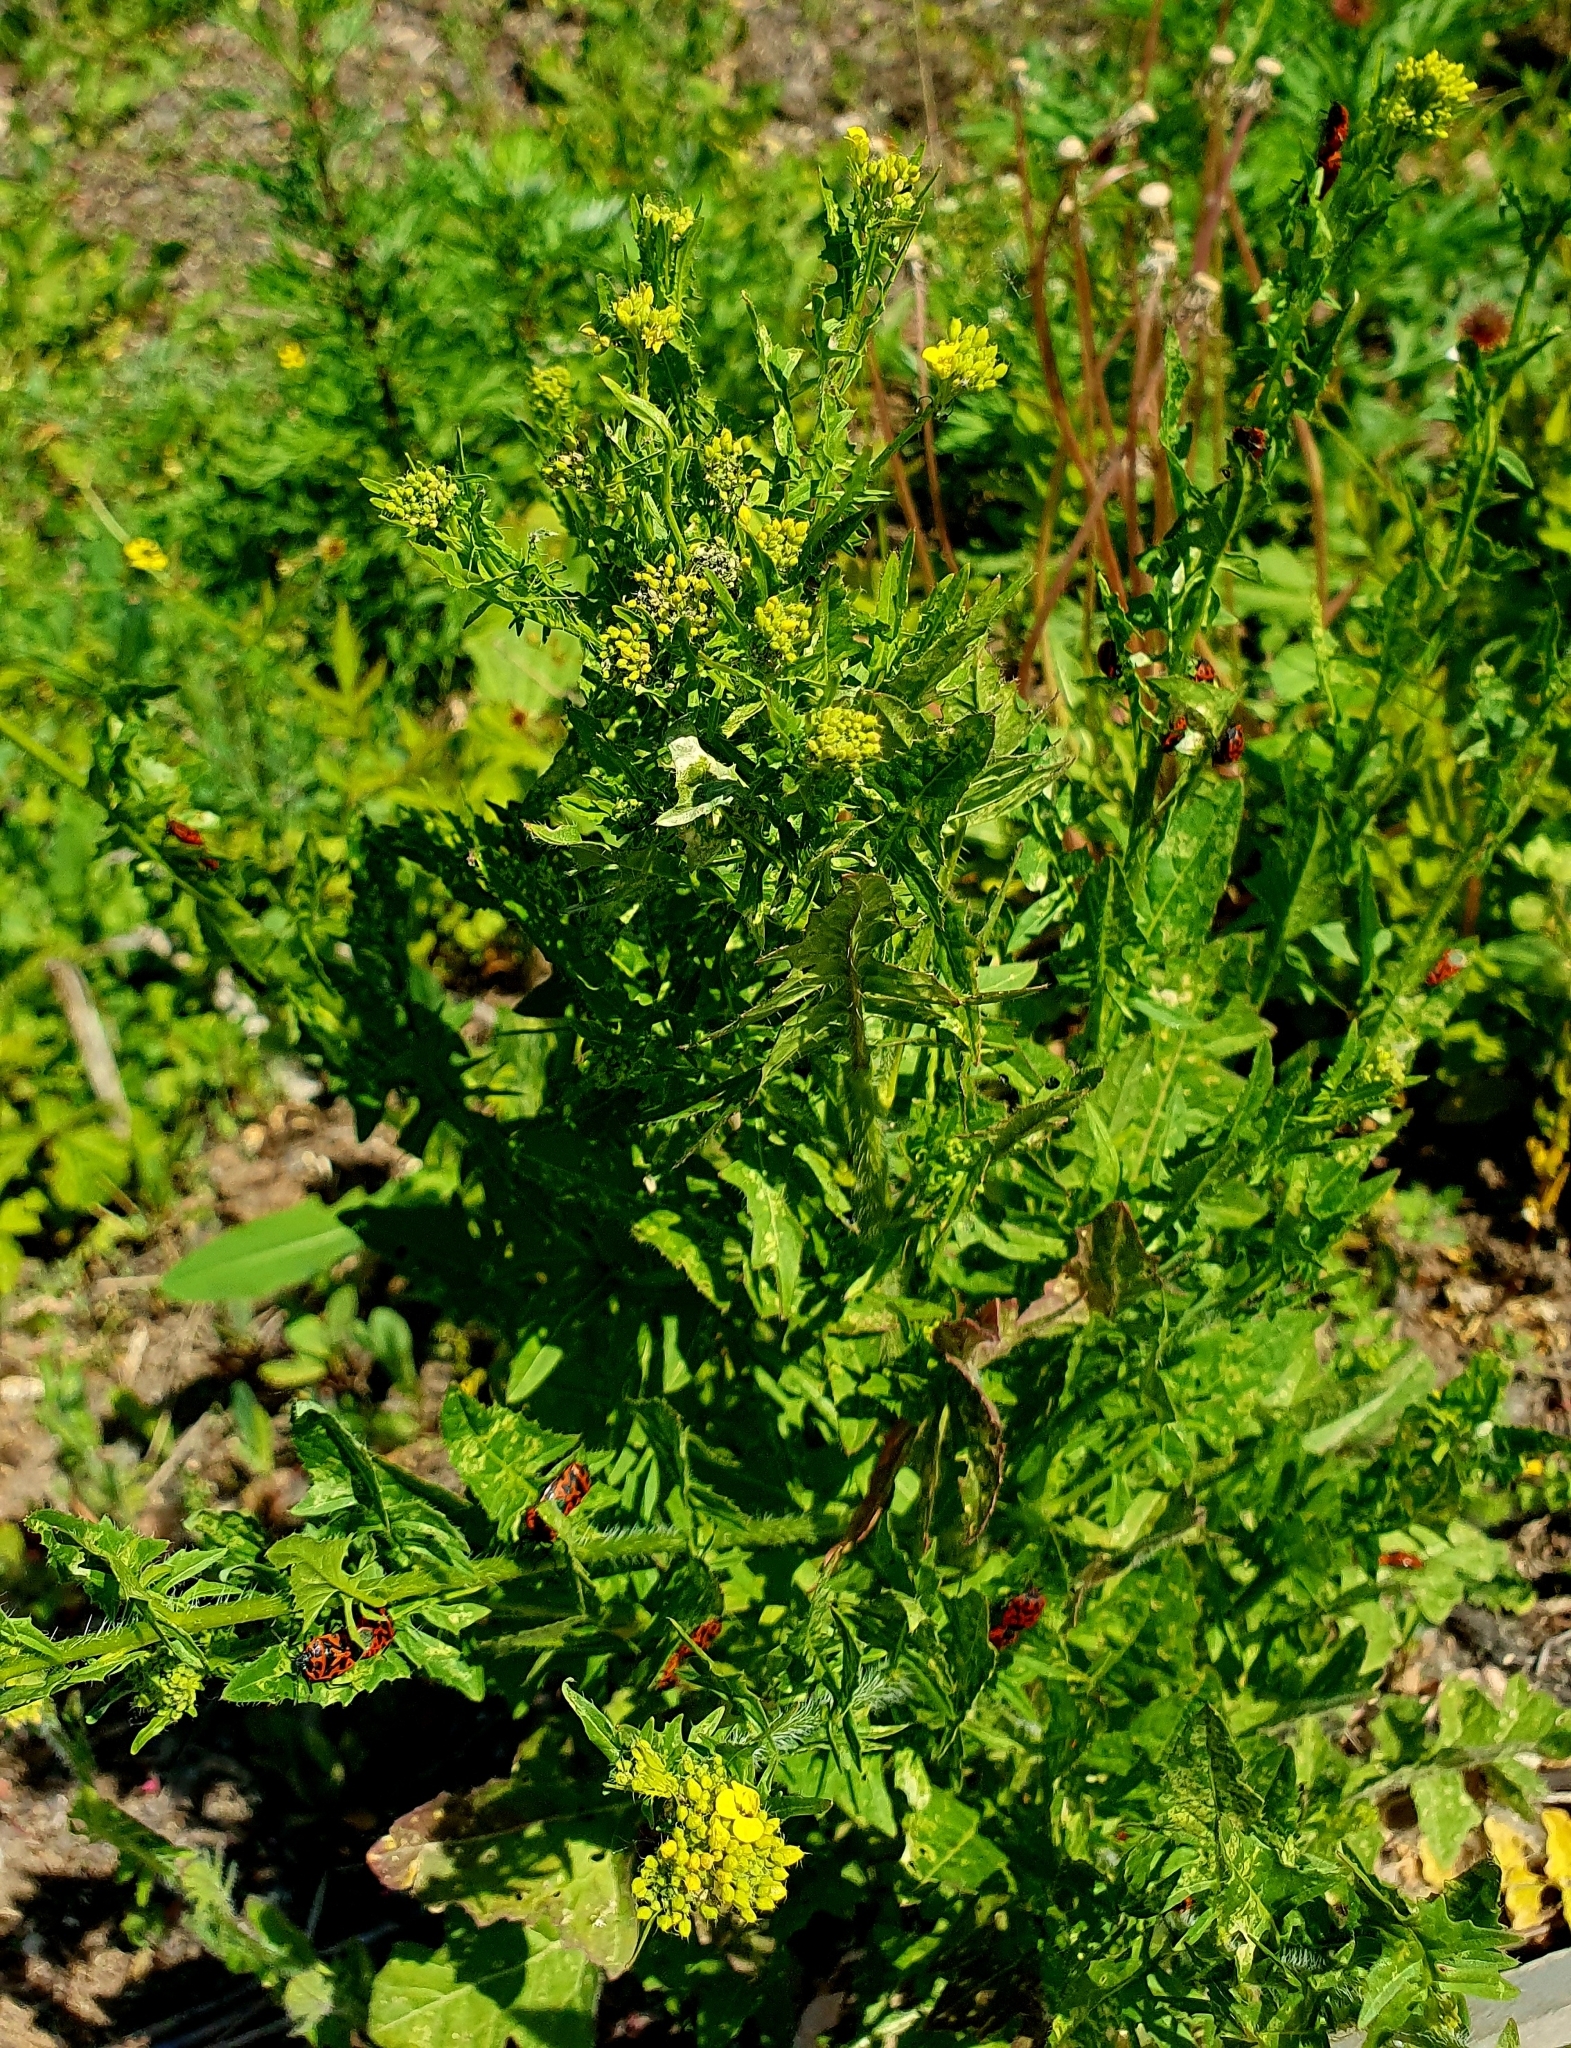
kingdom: Plantae
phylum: Tracheophyta
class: Magnoliopsida
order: Brassicales
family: Brassicaceae
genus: Sisymbrium
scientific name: Sisymbrium loeselii
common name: False london-rocket
